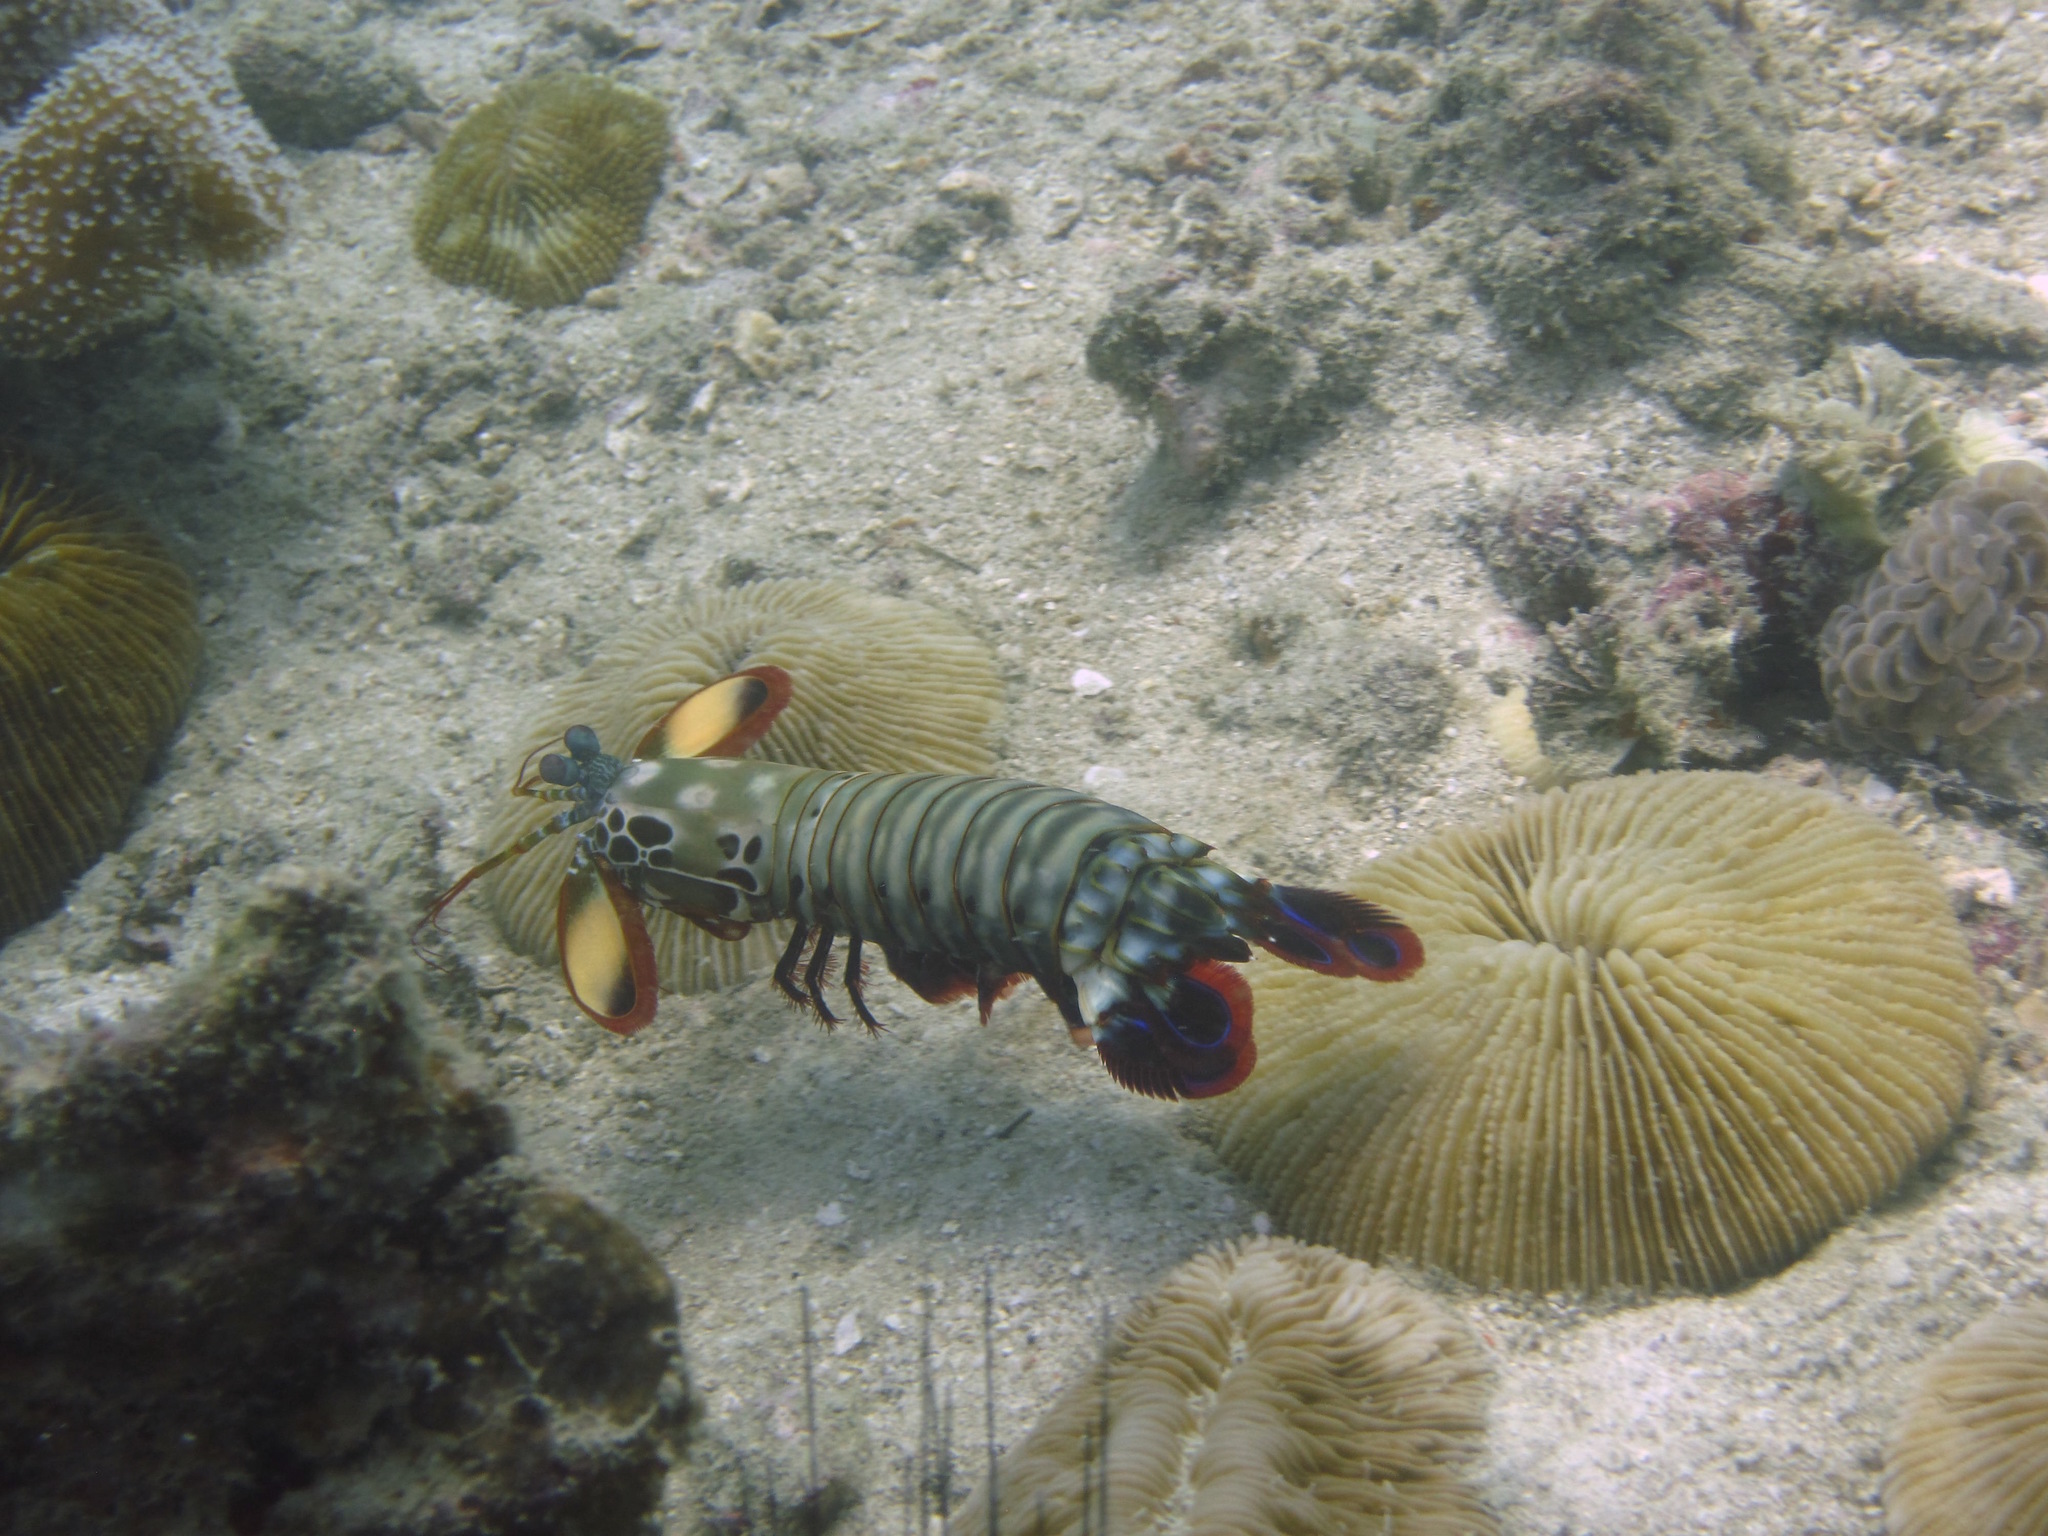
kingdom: Animalia
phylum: Arthropoda
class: Malacostraca
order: Stomatopoda
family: Odontodactylidae
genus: Odontodactylus
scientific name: Odontodactylus scyllarus
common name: Peacock mantis shrimp
